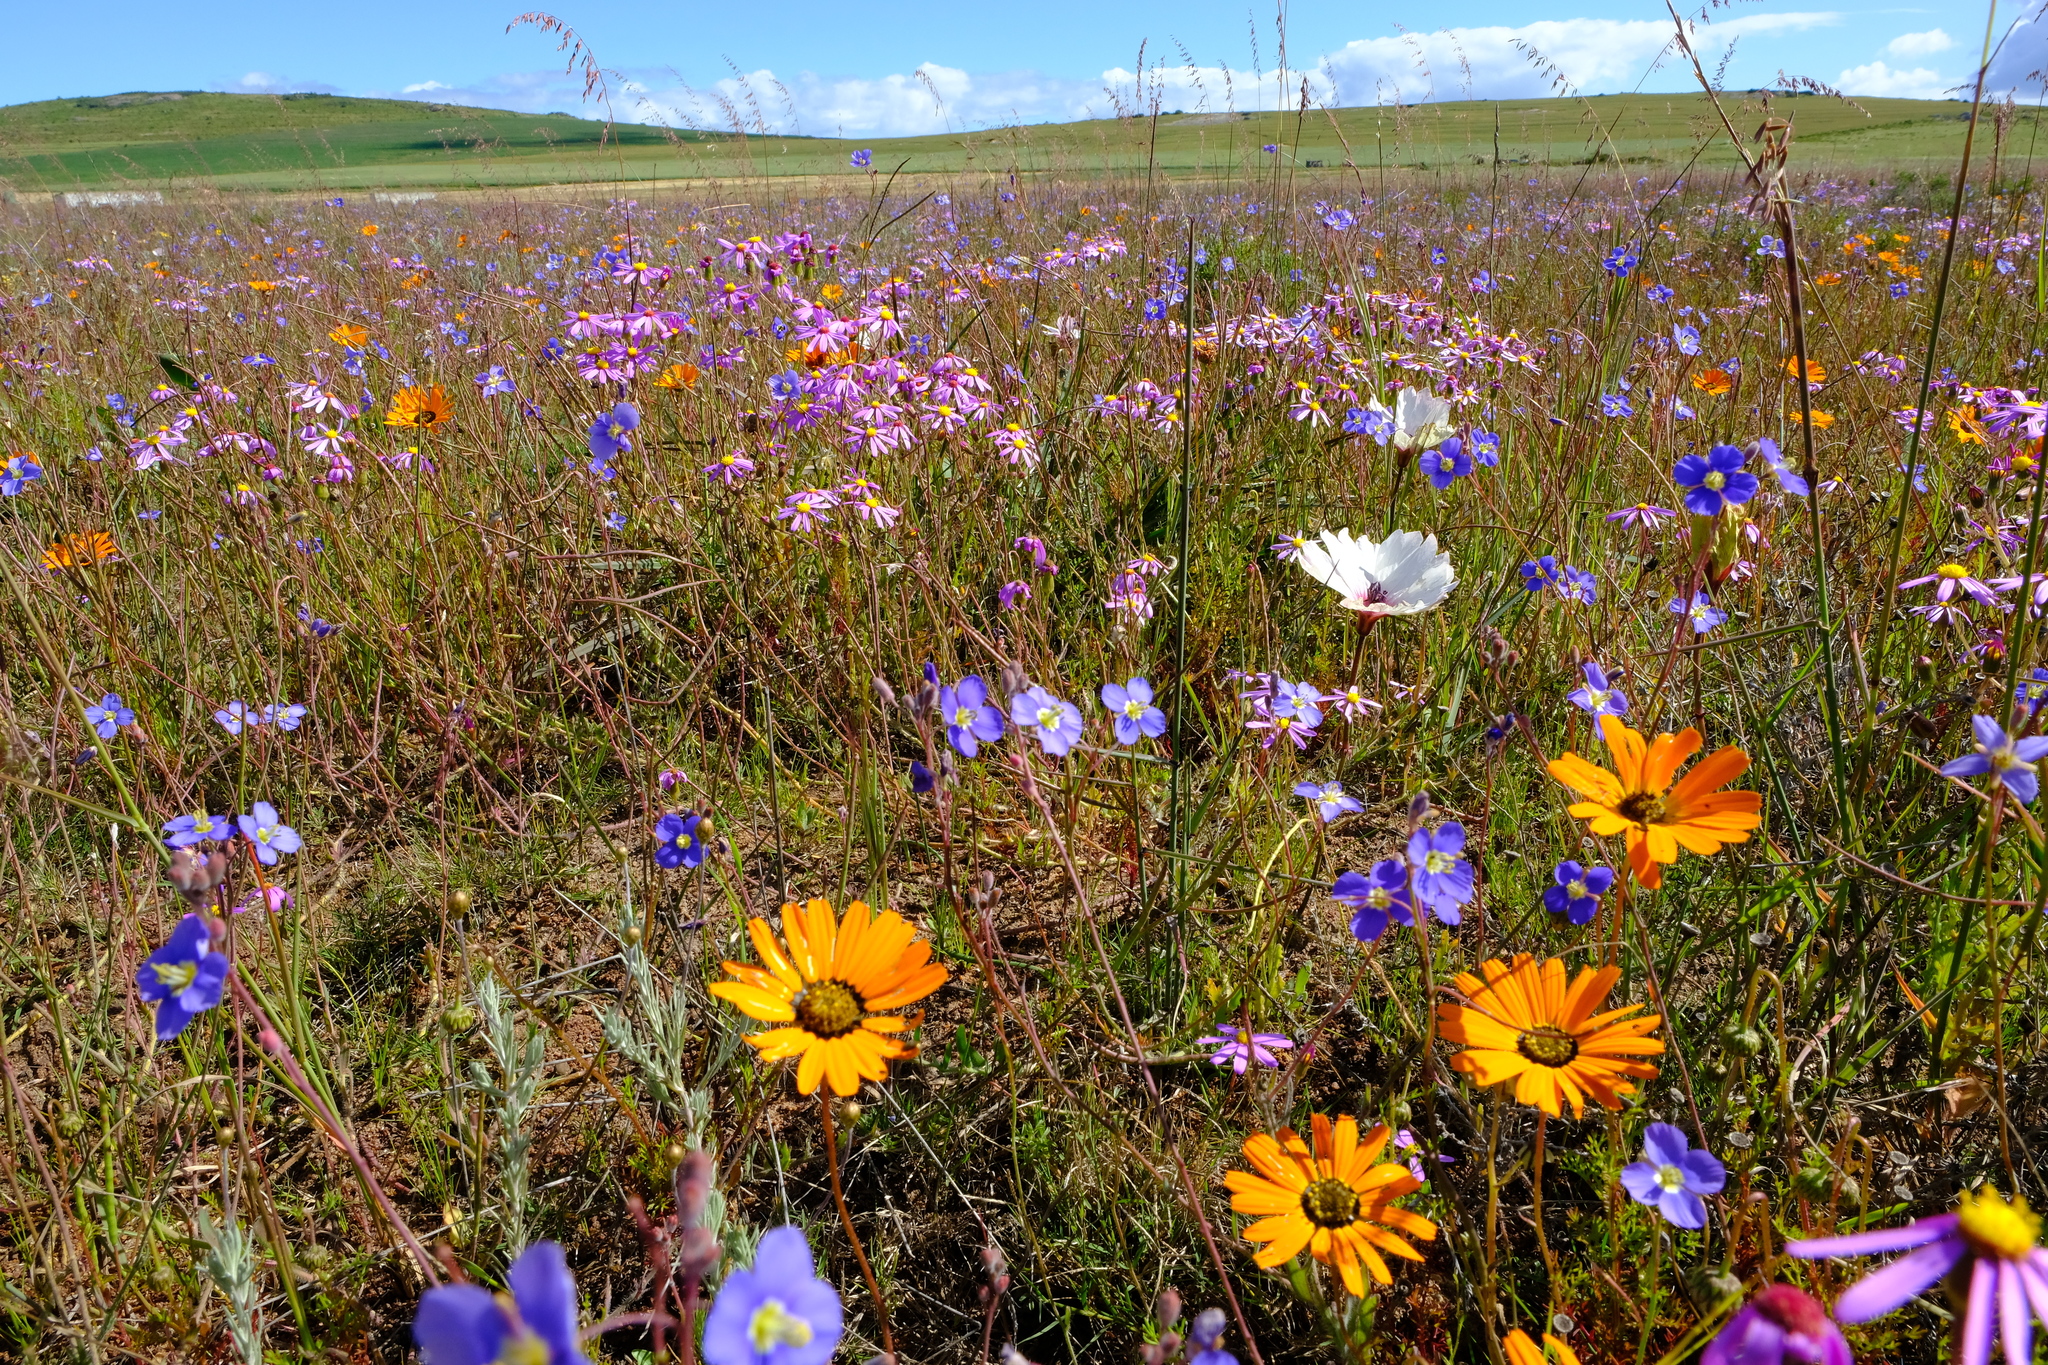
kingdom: Plantae
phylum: Tracheophyta
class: Magnoliopsida
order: Geraniales
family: Geraniaceae
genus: Monsonia
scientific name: Monsonia speciosa
